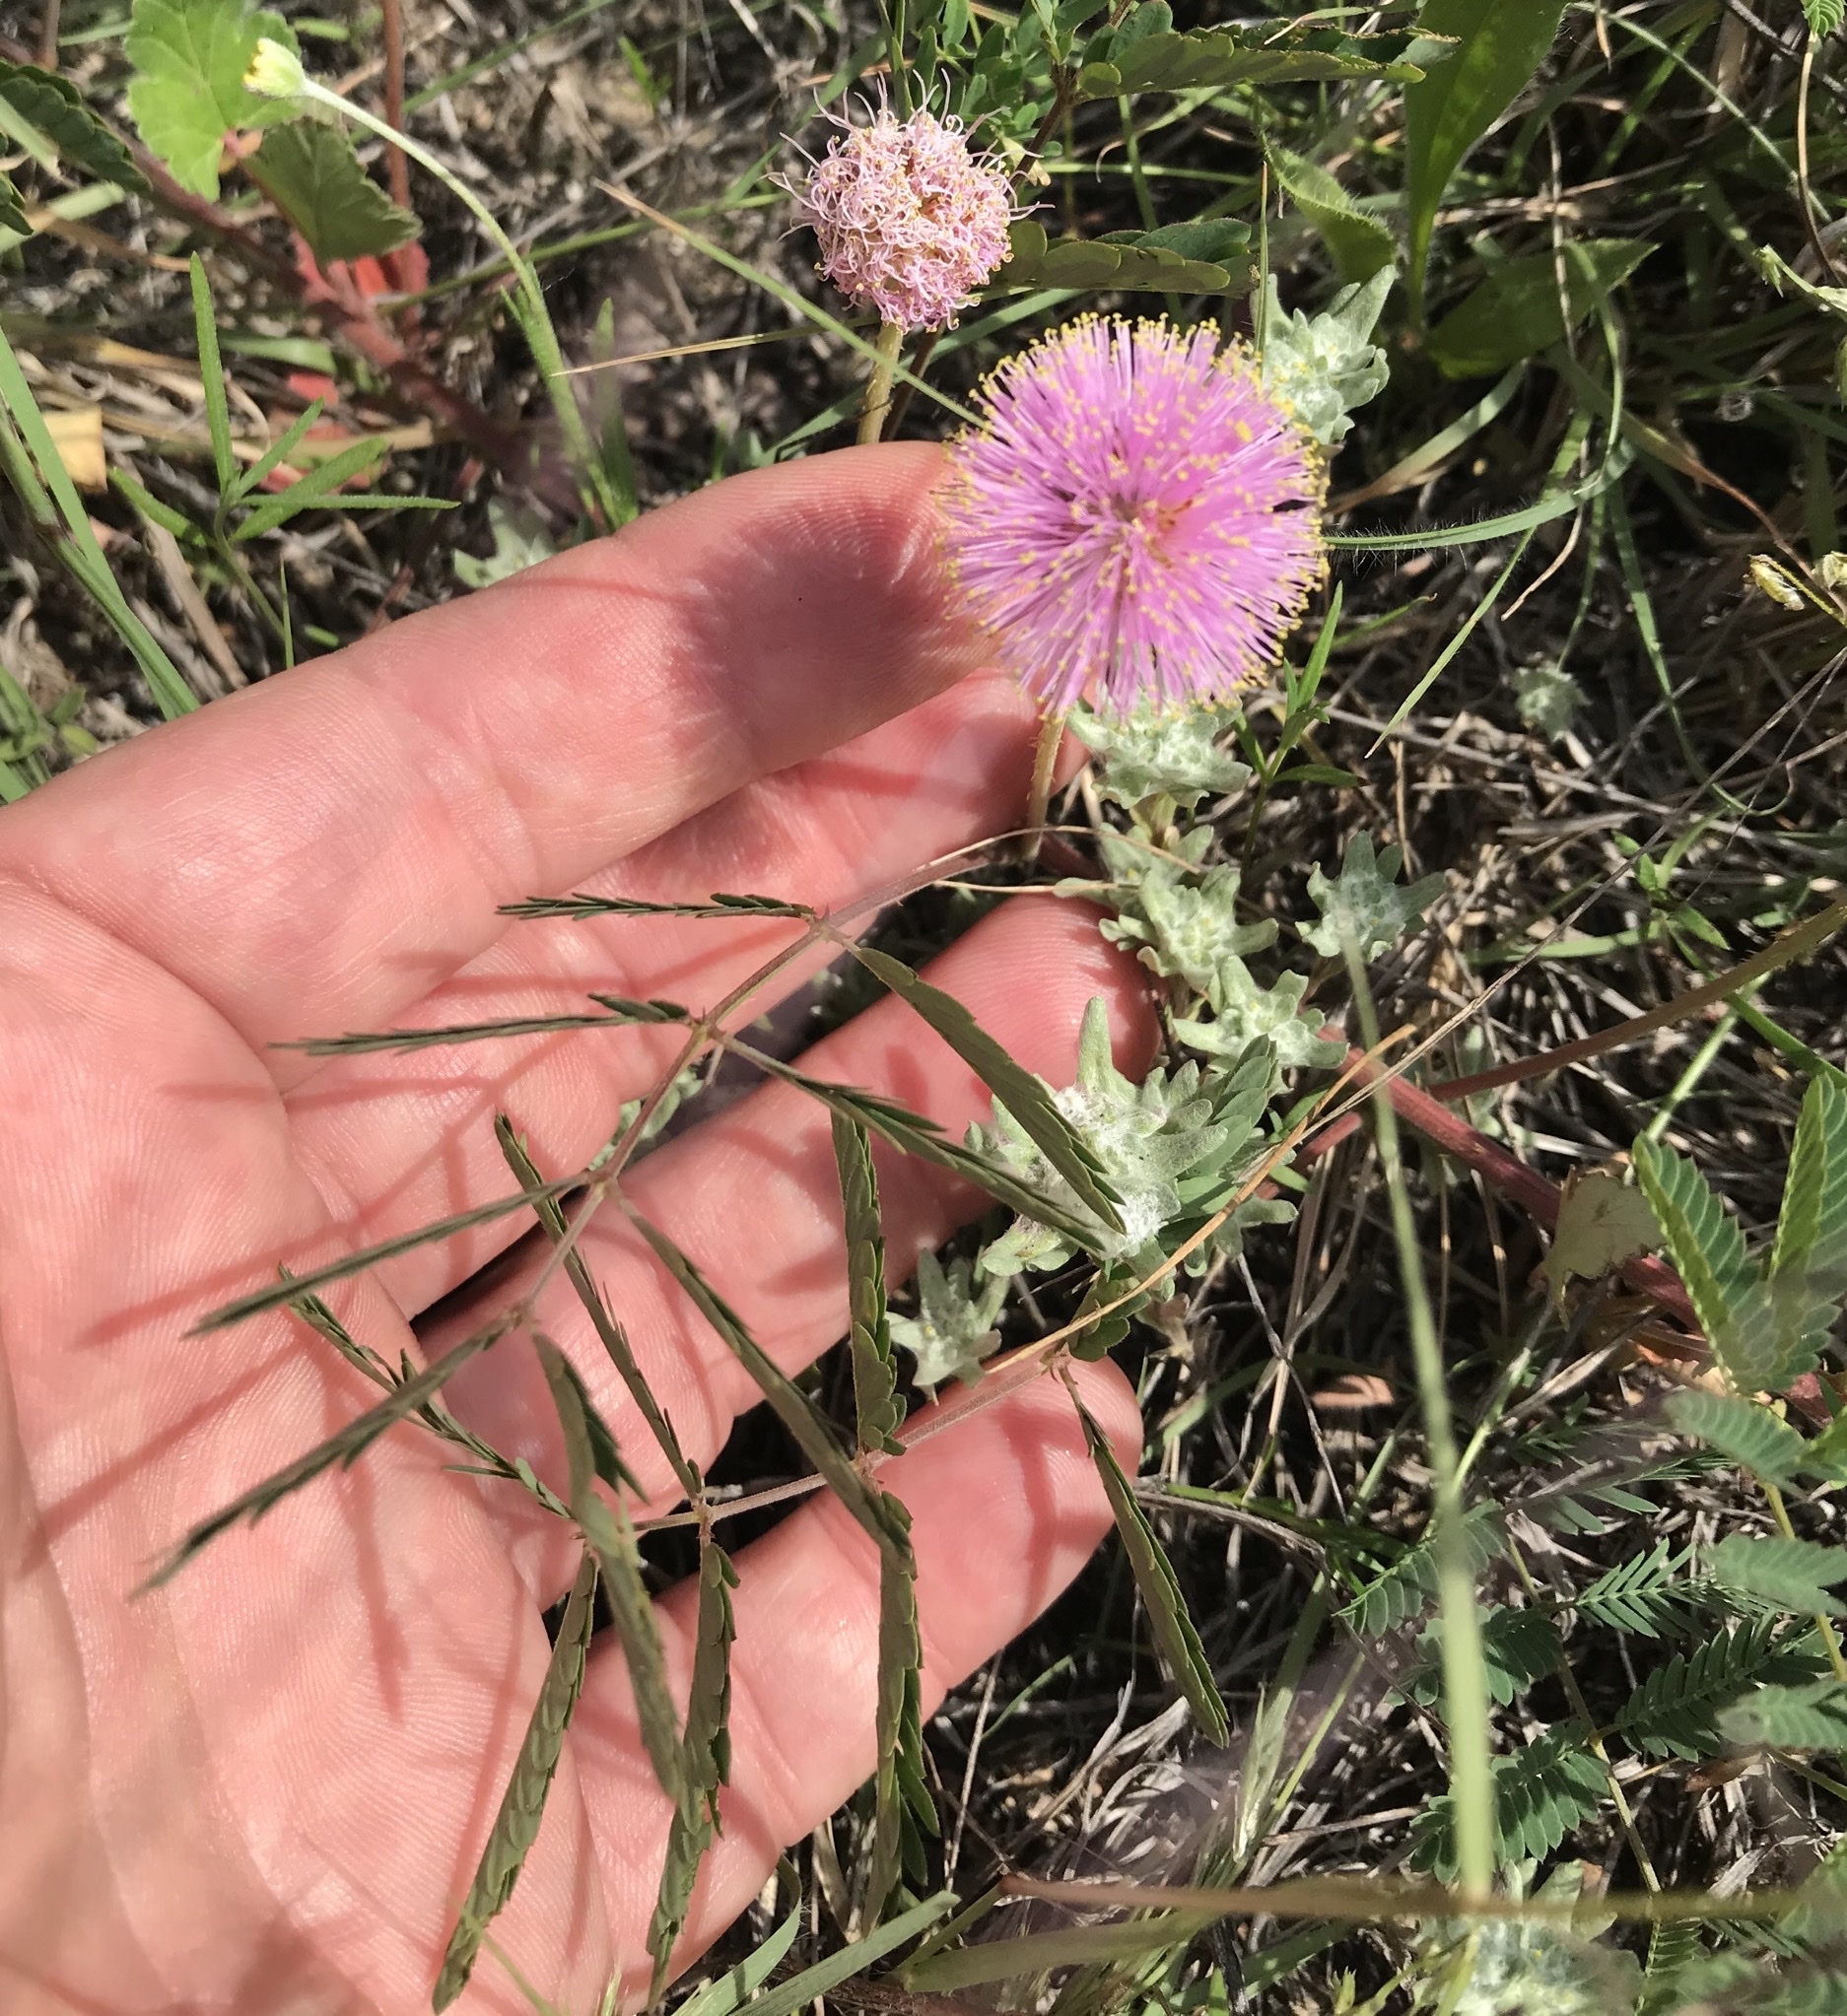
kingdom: Plantae
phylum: Tracheophyta
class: Magnoliopsida
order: Fabales
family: Fabaceae
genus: Mimosa
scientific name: Mimosa quadrivalvis
